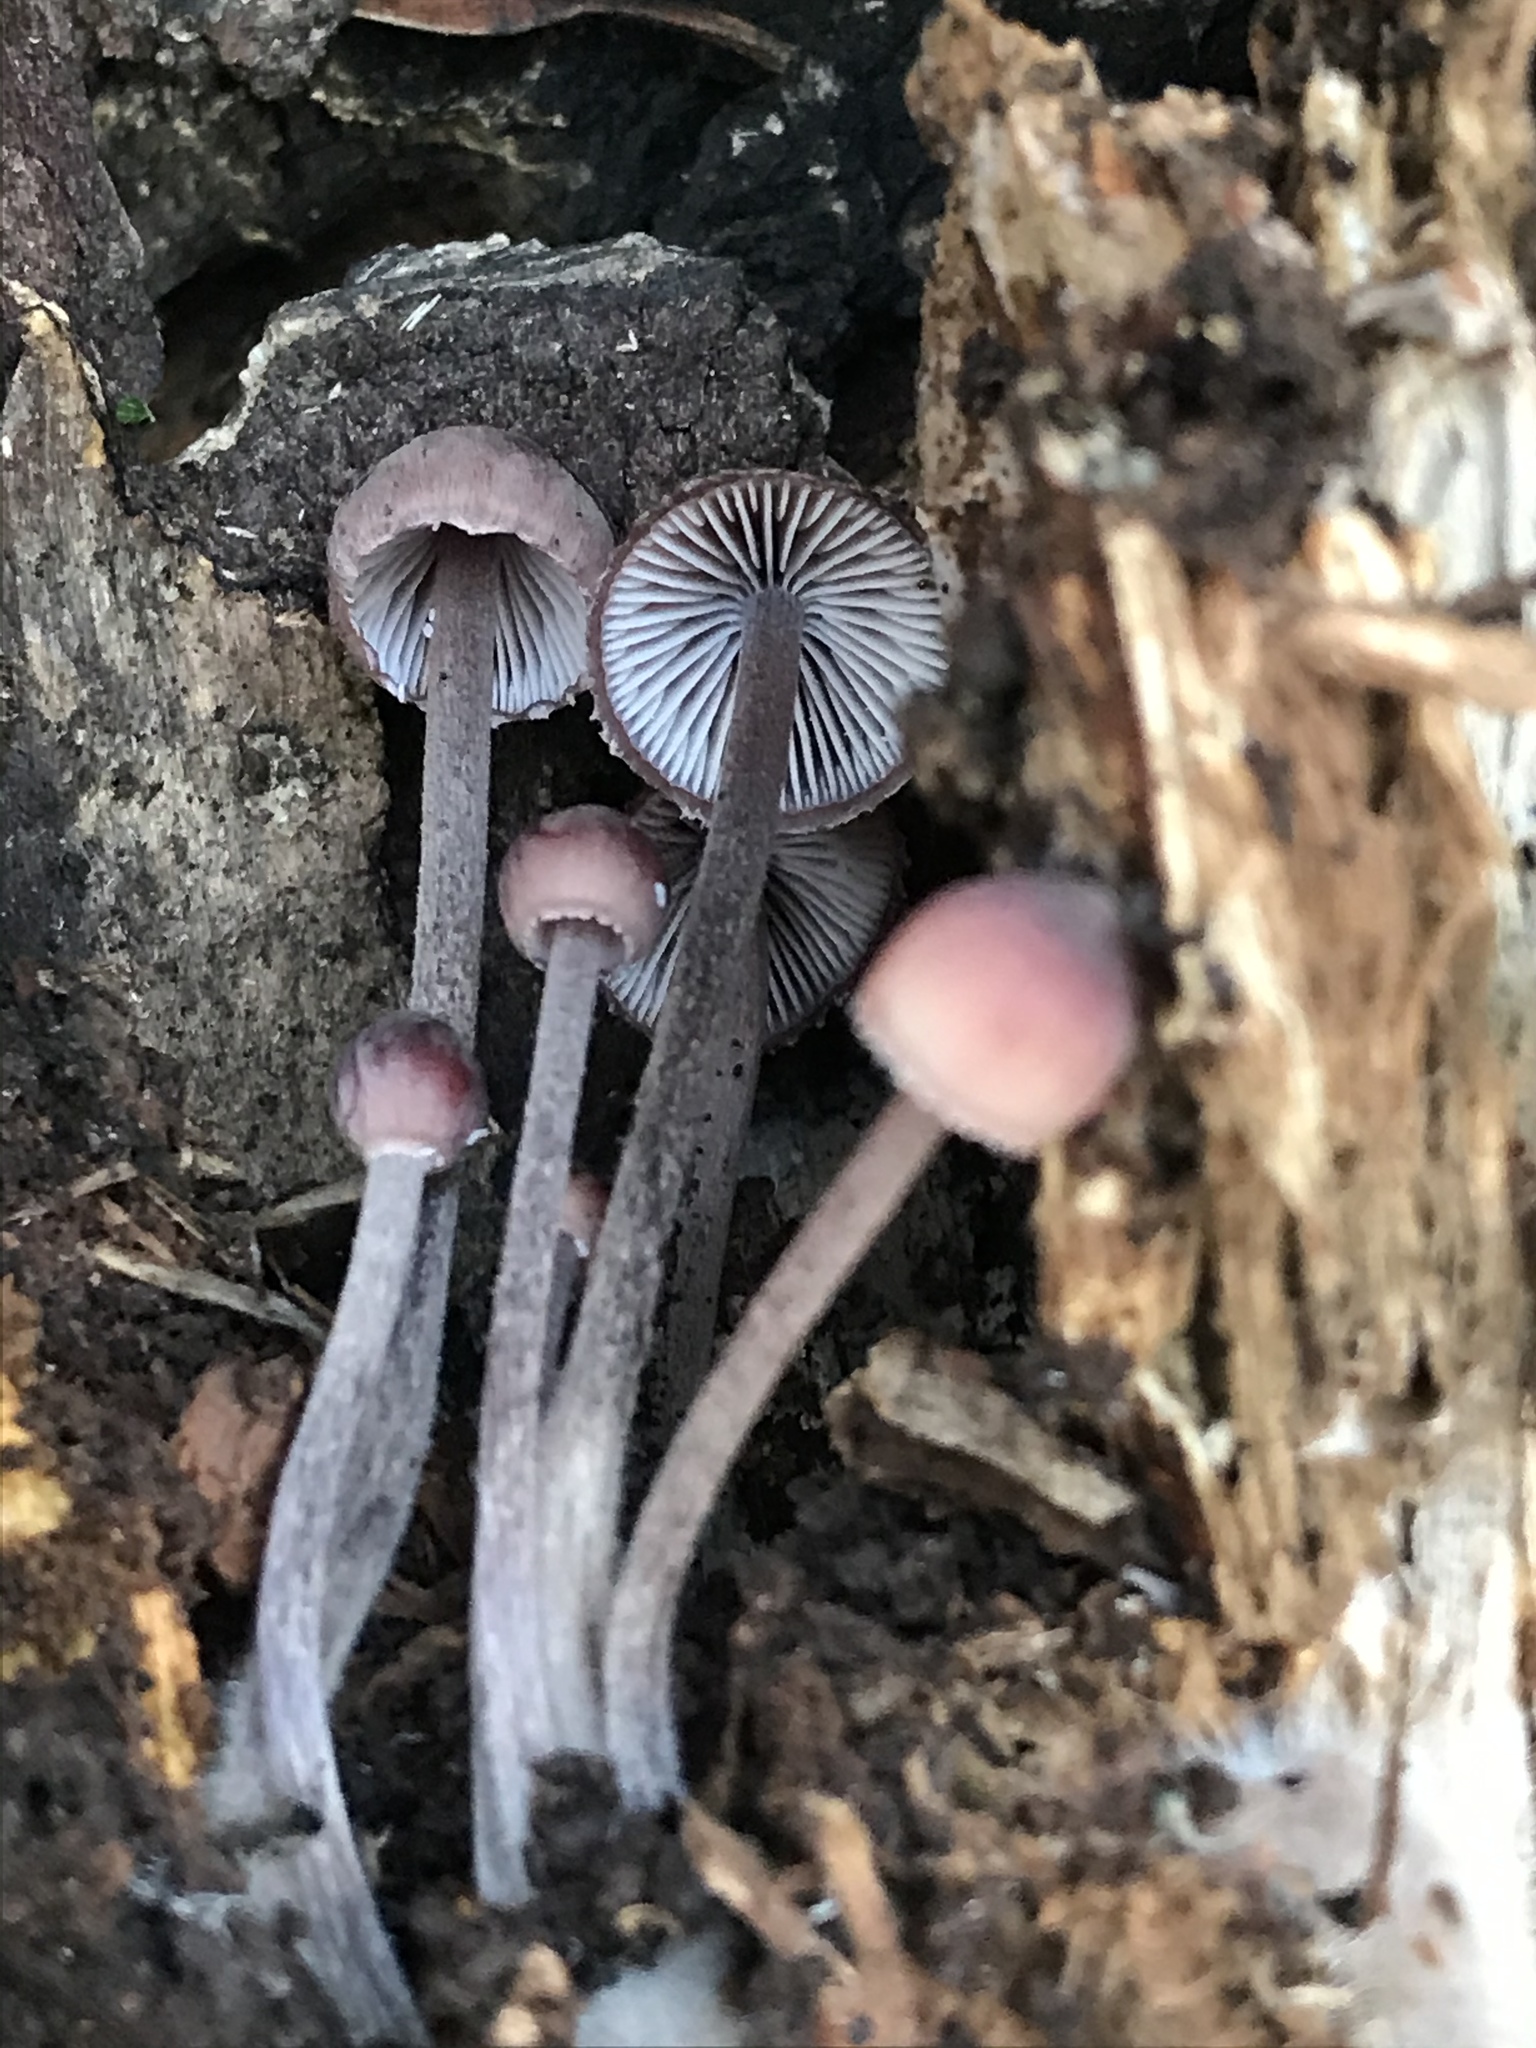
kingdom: Fungi
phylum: Basidiomycota
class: Agaricomycetes
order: Agaricales
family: Mycenaceae
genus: Mycena
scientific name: Mycena haematopus
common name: Burgundydrop bonnet
